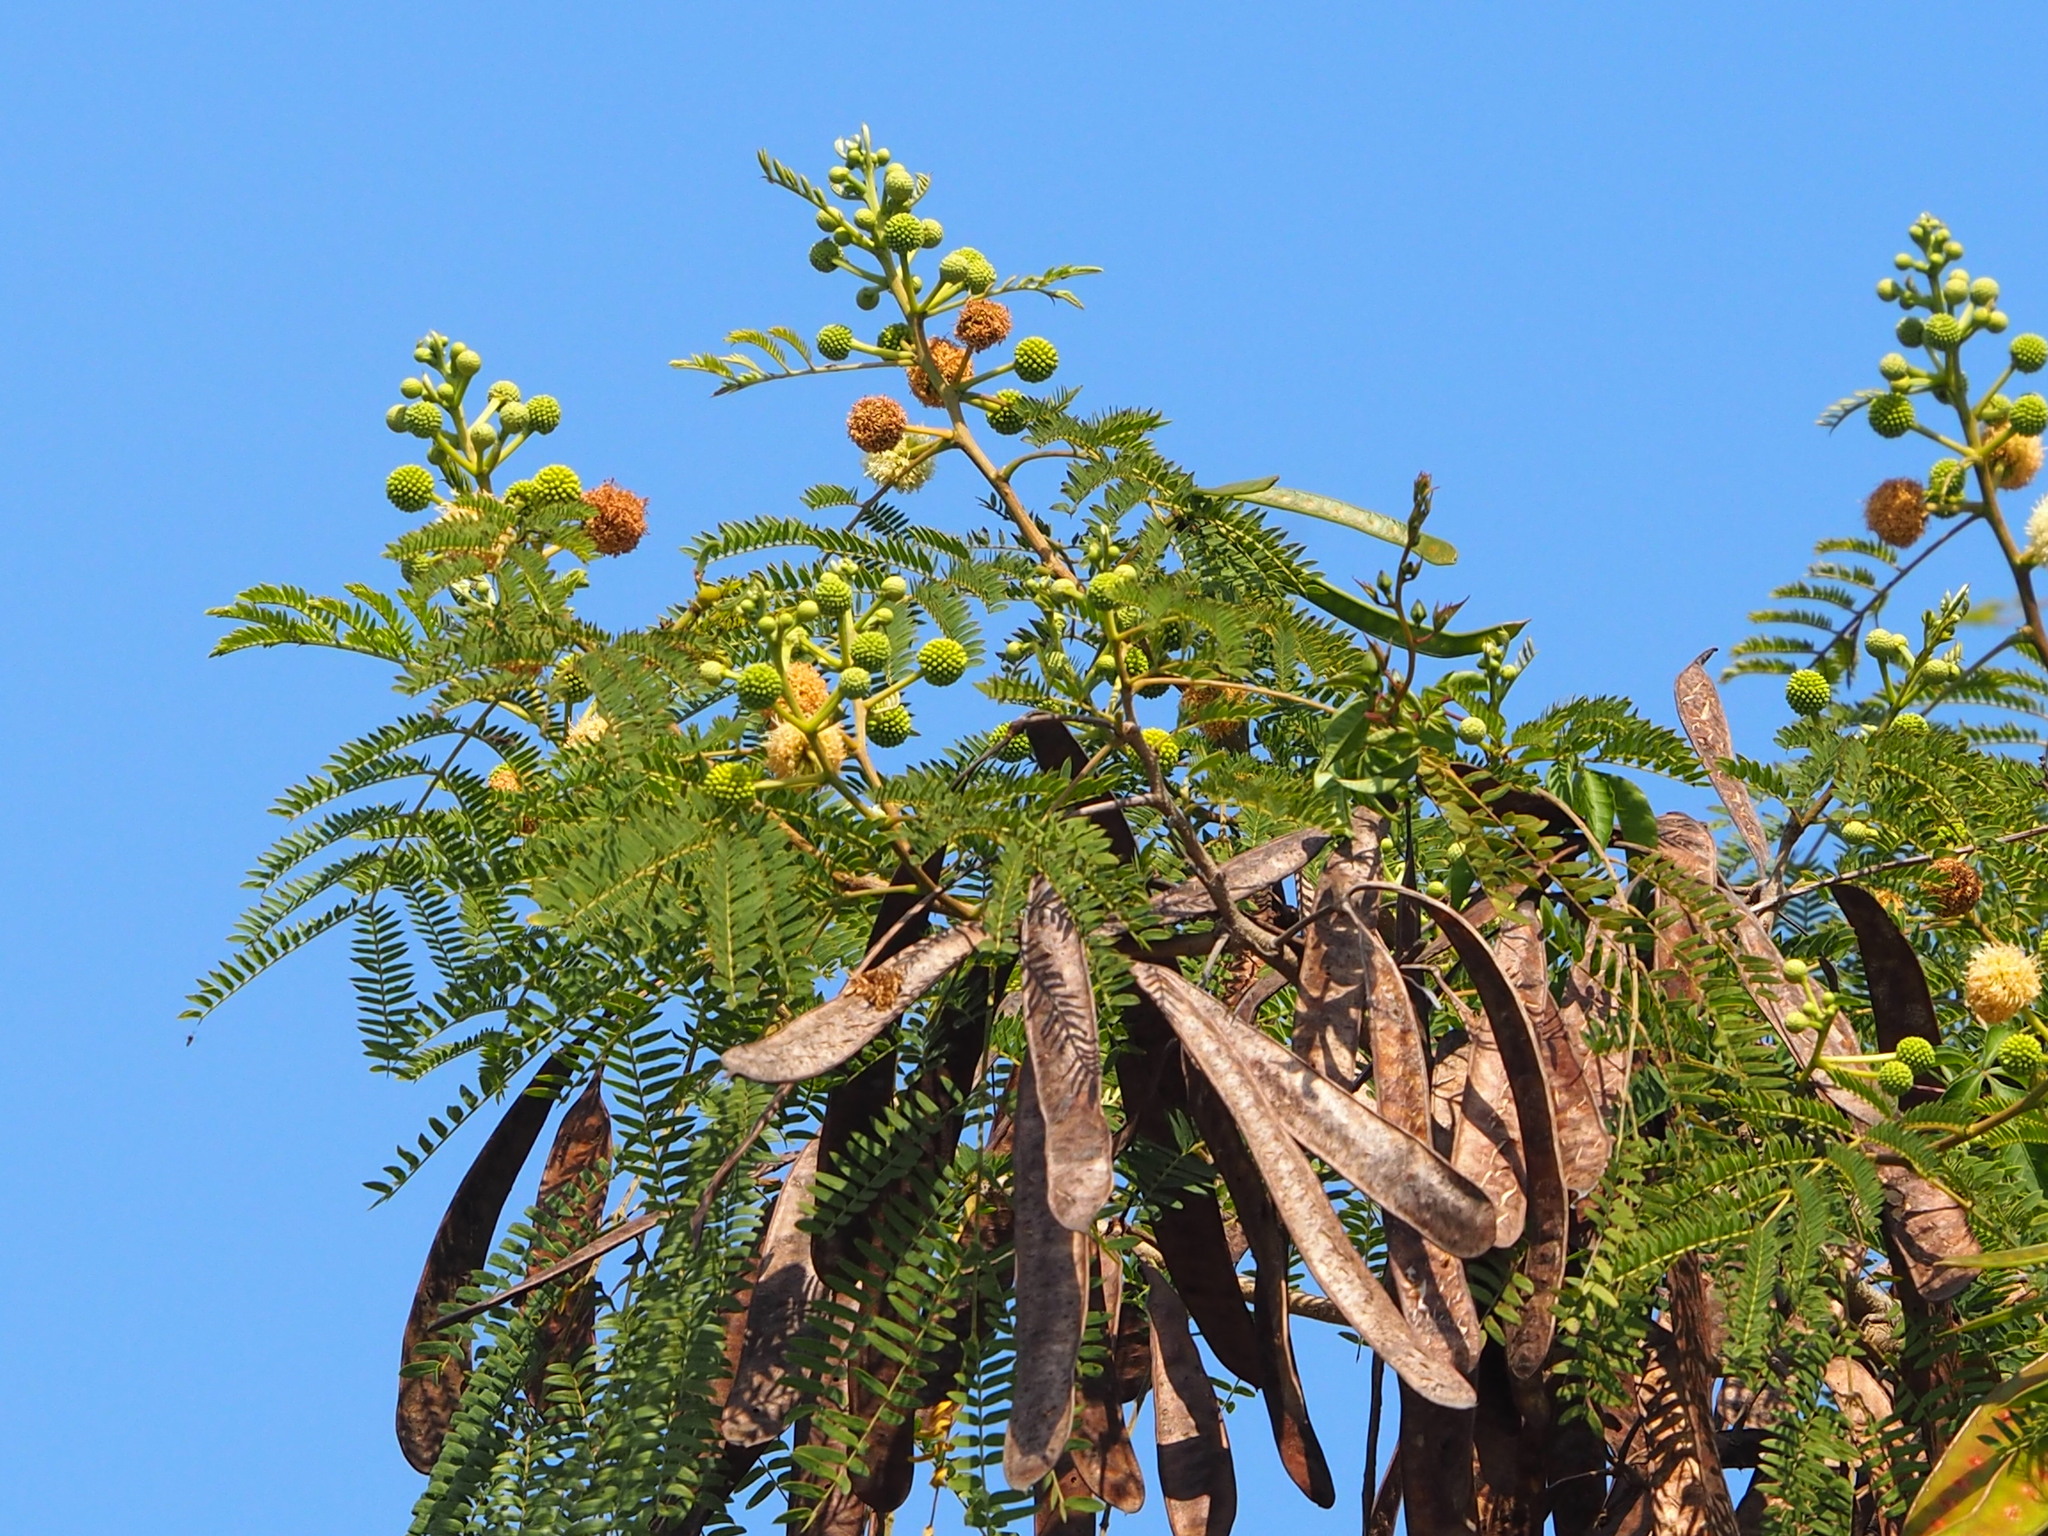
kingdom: Plantae
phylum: Tracheophyta
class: Magnoliopsida
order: Fabales
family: Fabaceae
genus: Leucaena
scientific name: Leucaena leucocephala
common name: White leadtree
